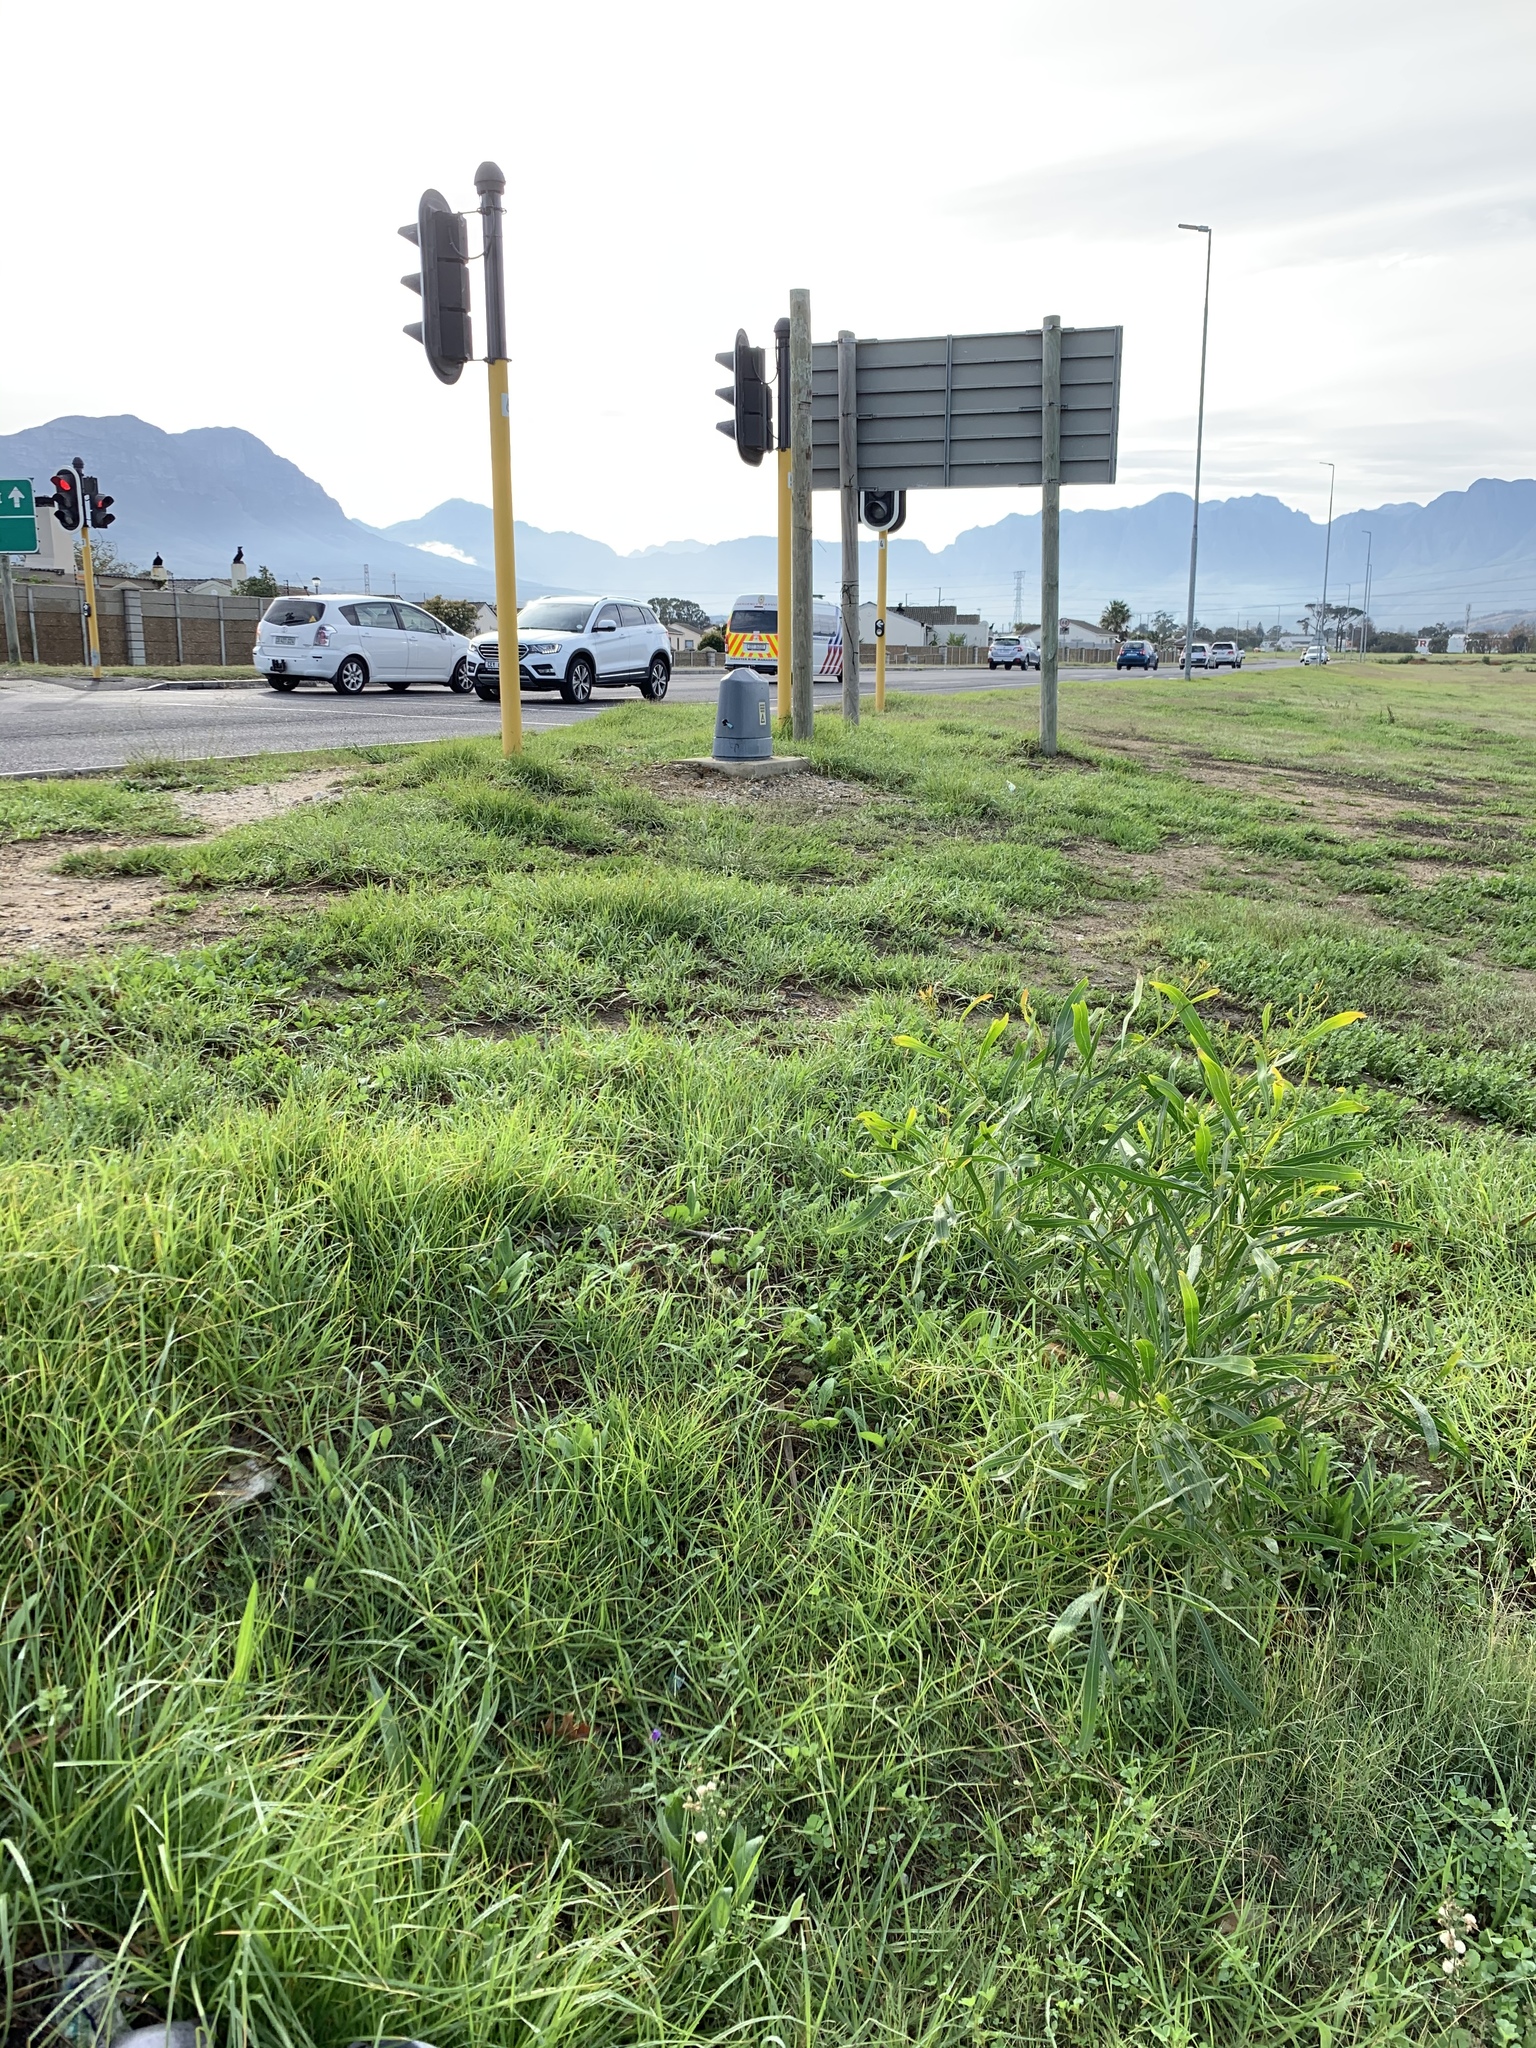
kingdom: Plantae
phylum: Tracheophyta
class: Magnoliopsida
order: Fabales
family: Fabaceae
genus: Acacia
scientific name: Acacia saligna
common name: Orange wattle
